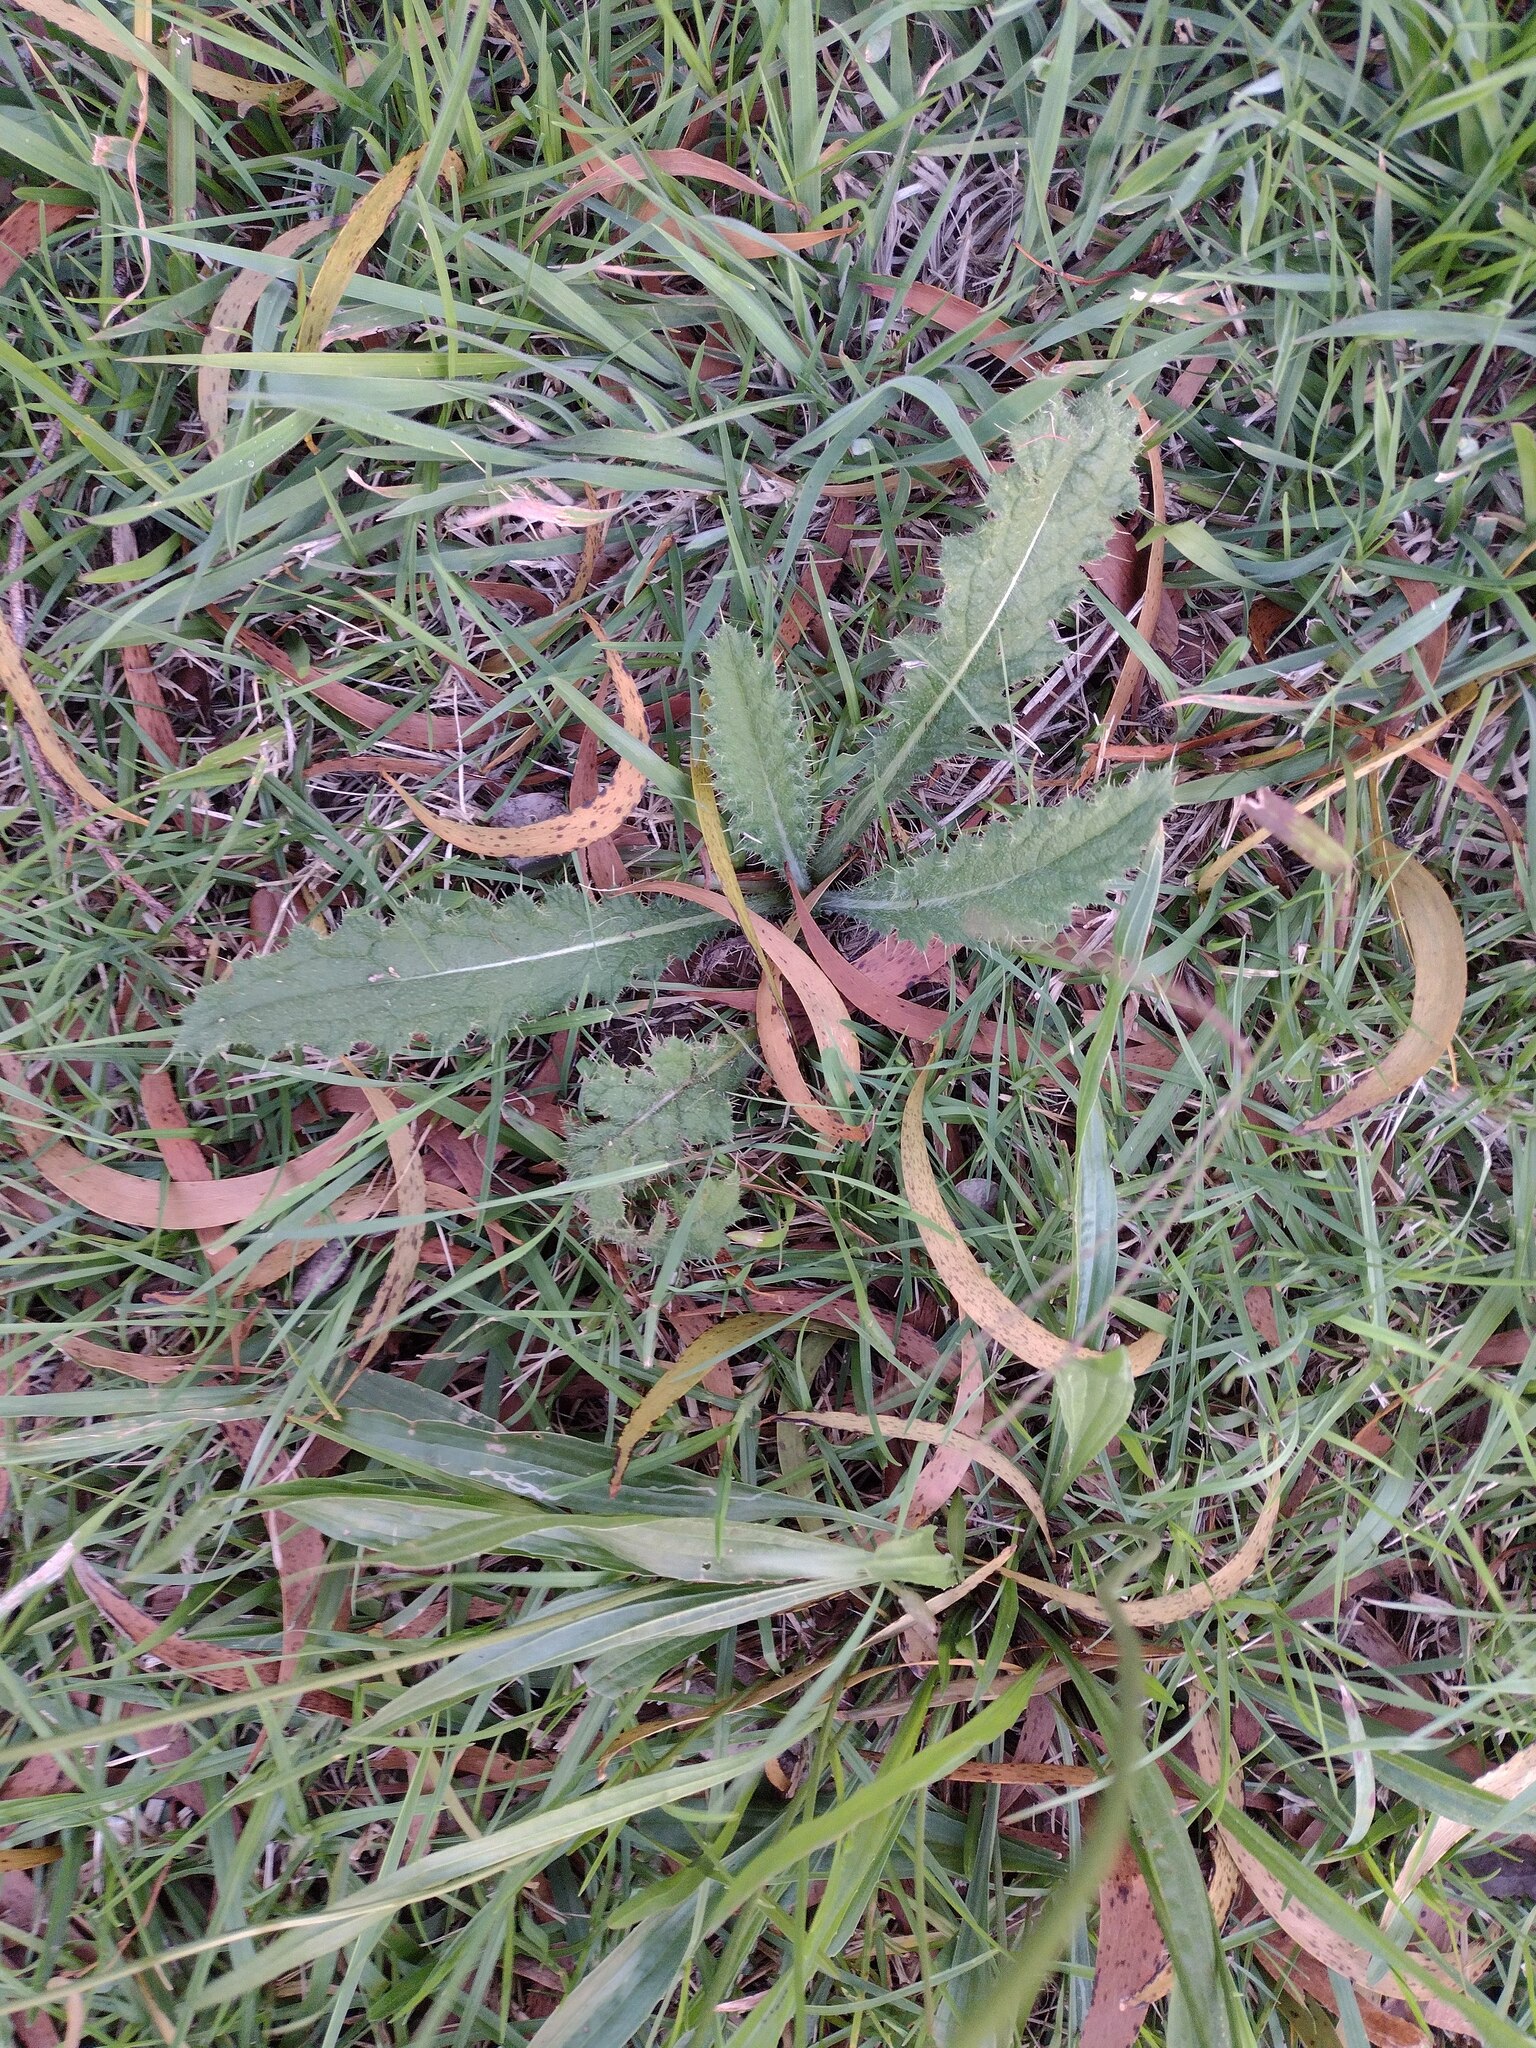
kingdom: Plantae
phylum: Tracheophyta
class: Magnoliopsida
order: Asterales
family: Asteraceae
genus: Cirsium
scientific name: Cirsium vulgare
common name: Bull thistle
